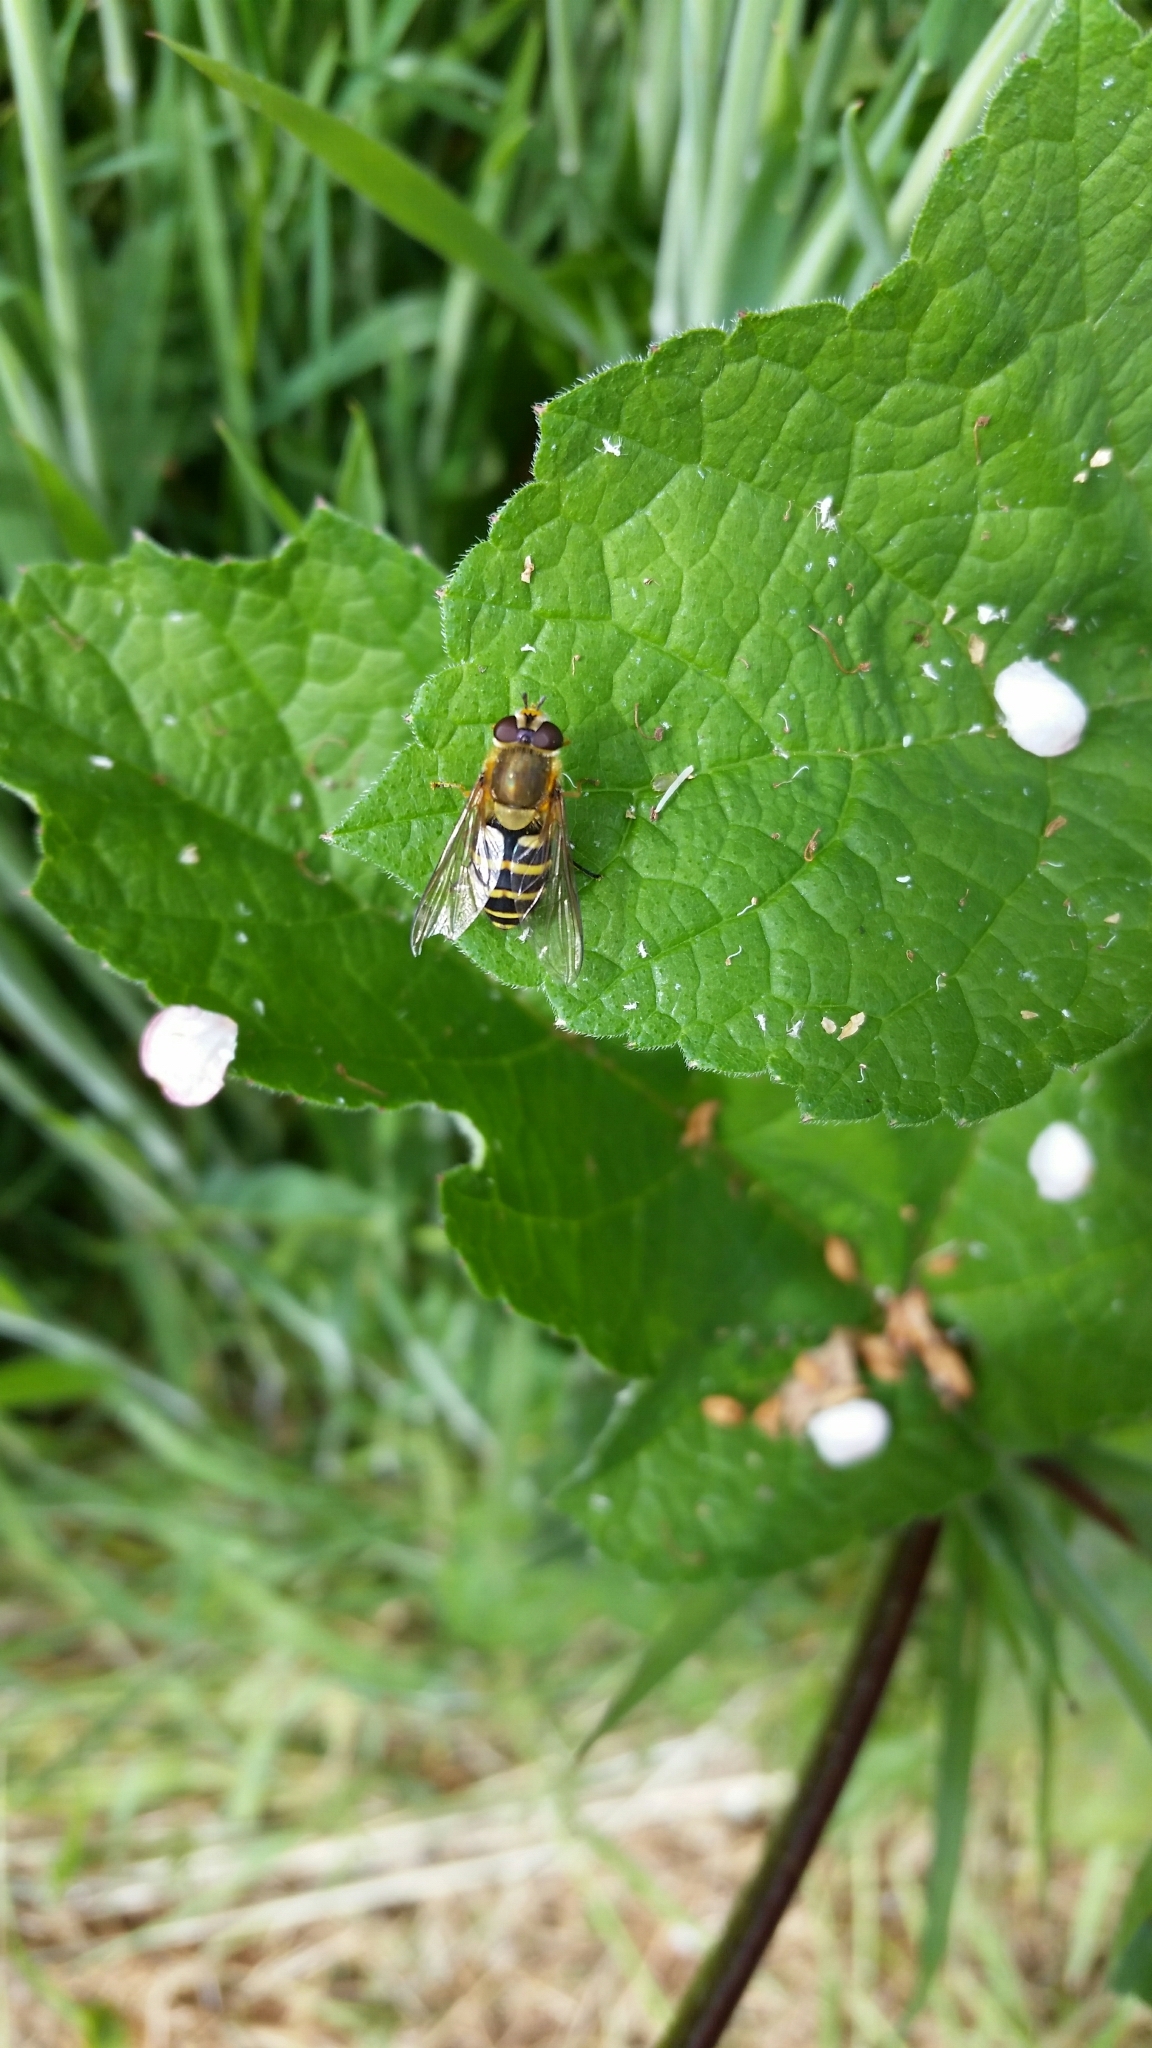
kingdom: Animalia
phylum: Arthropoda
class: Insecta
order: Diptera
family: Syrphidae
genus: Syrphus
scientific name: Syrphus
